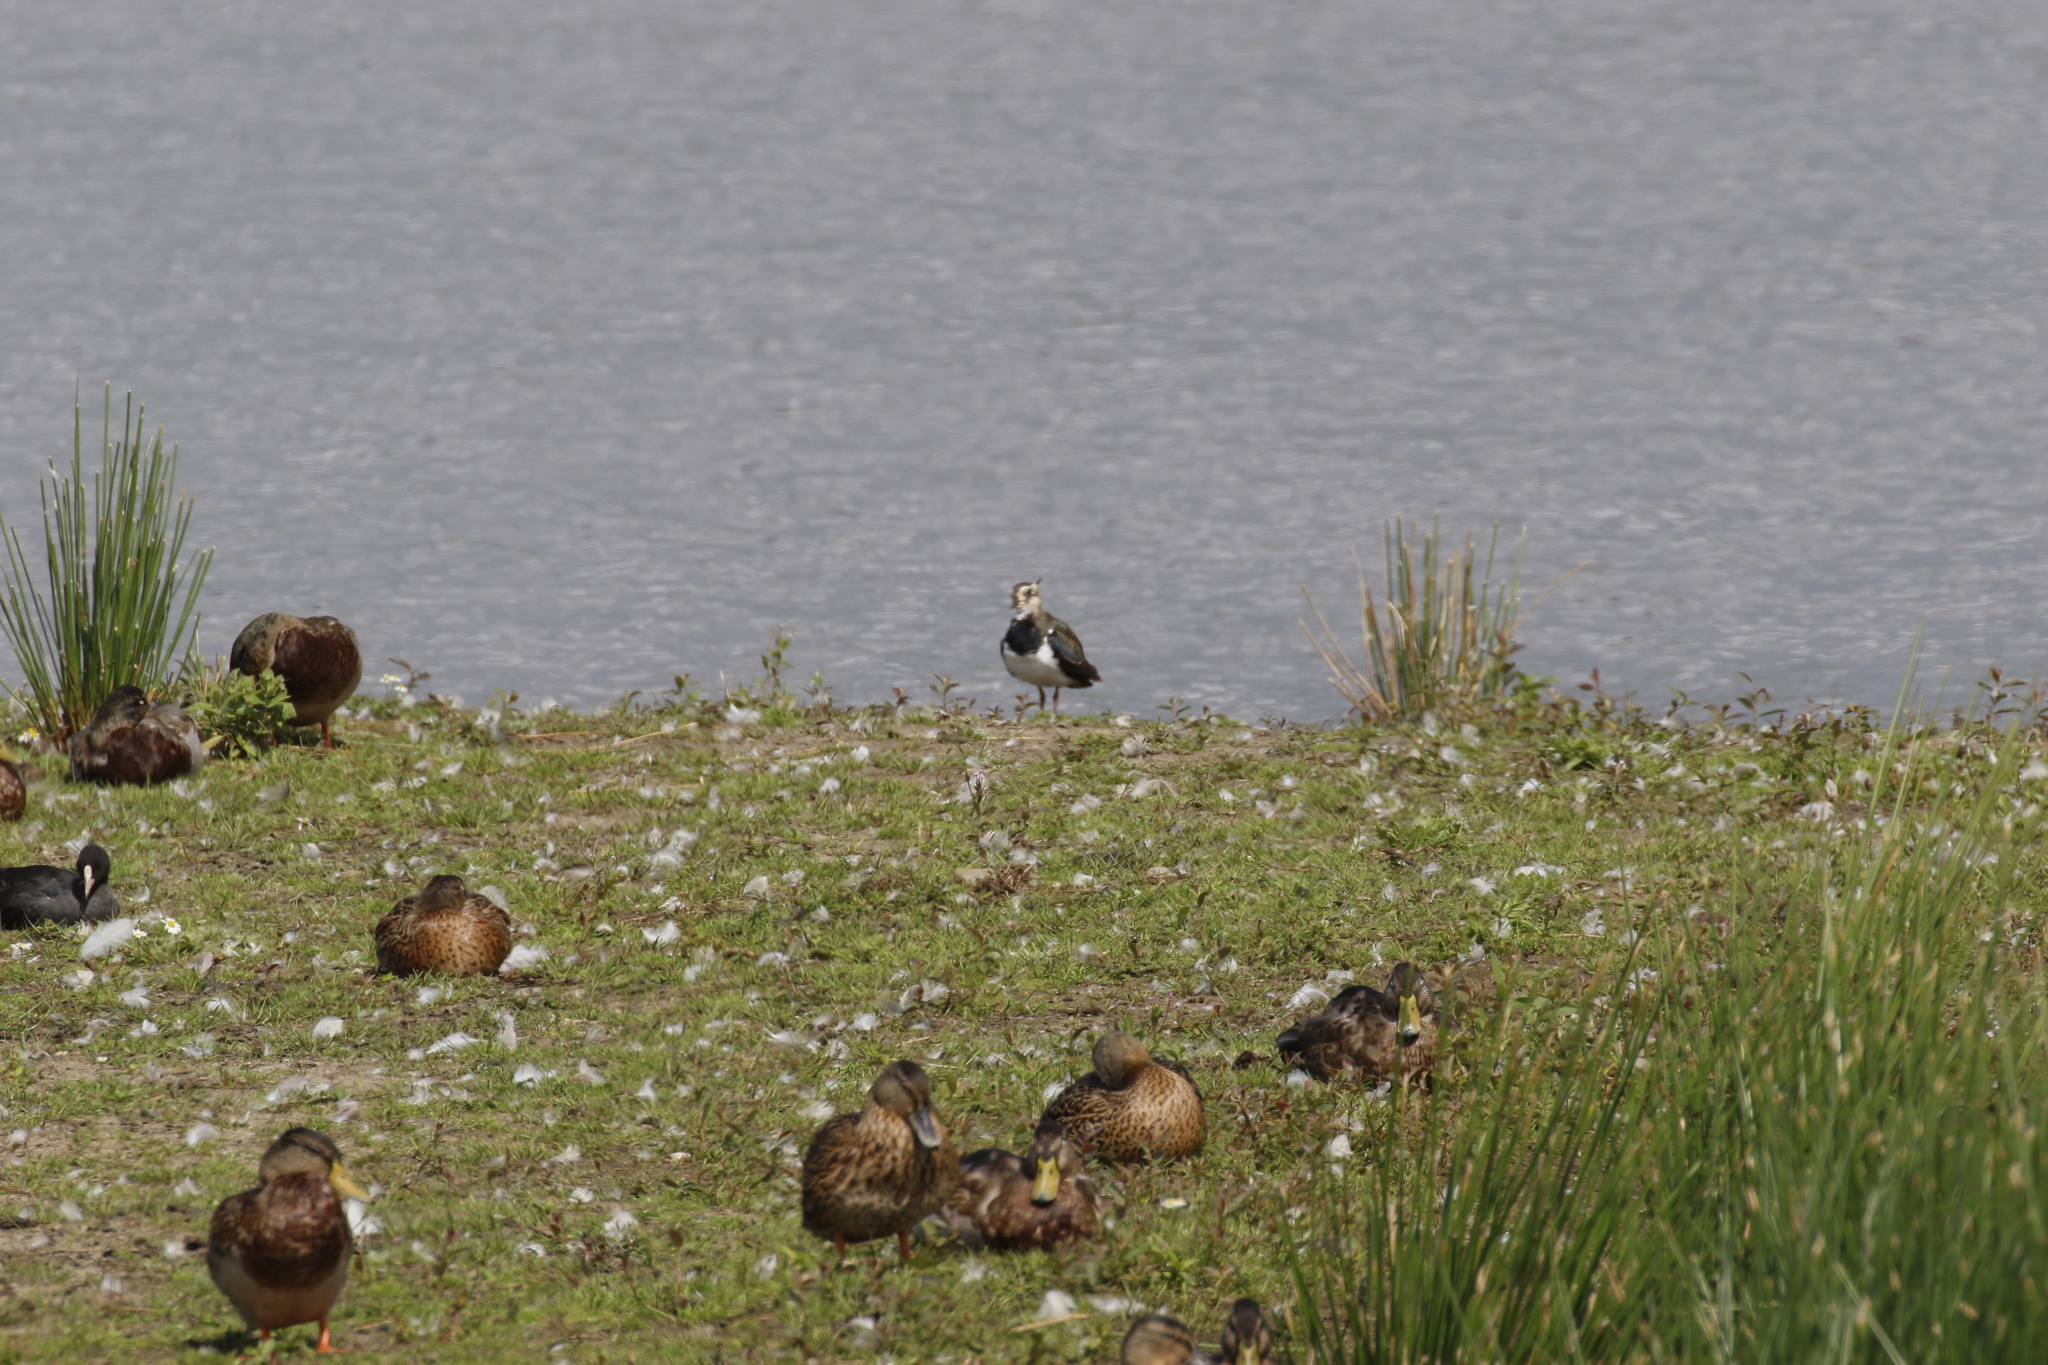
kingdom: Animalia
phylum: Chordata
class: Aves
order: Charadriiformes
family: Charadriidae
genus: Vanellus
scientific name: Vanellus vanellus
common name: Northern lapwing
